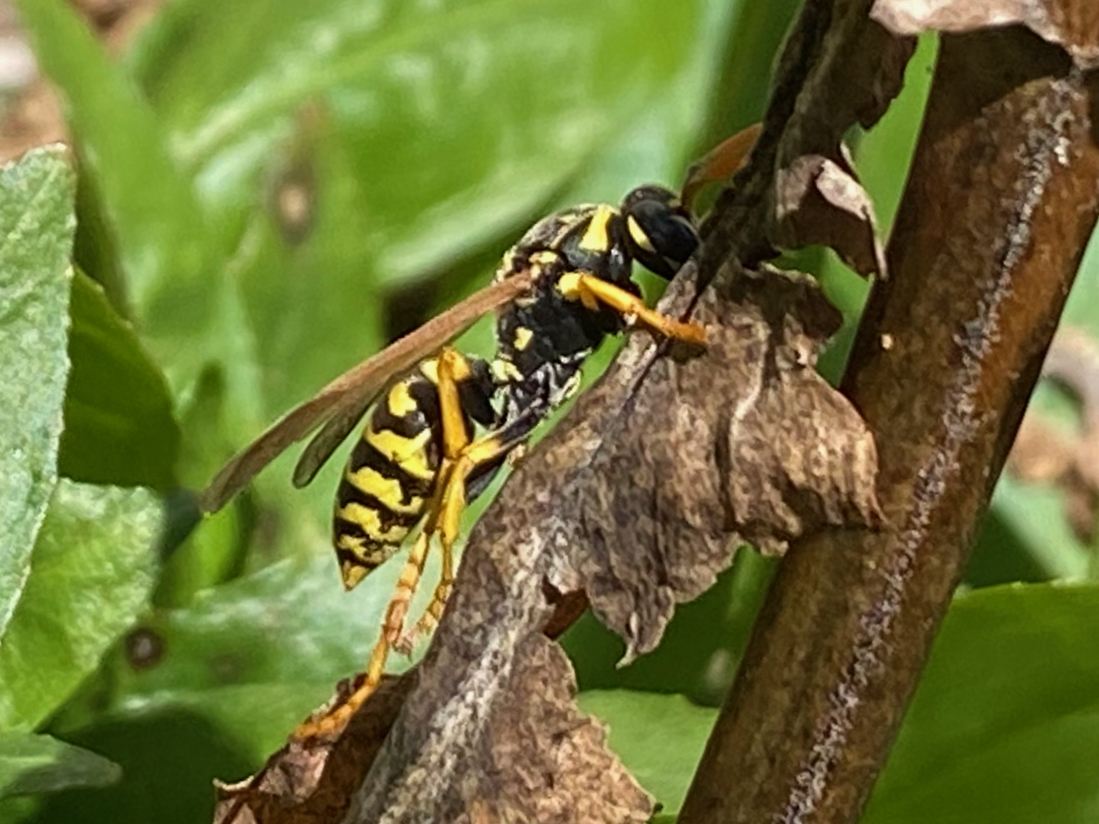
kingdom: Animalia
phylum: Arthropoda
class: Insecta
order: Hymenoptera
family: Eumenidae
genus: Polistes
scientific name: Polistes dominula
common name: Paper wasp
